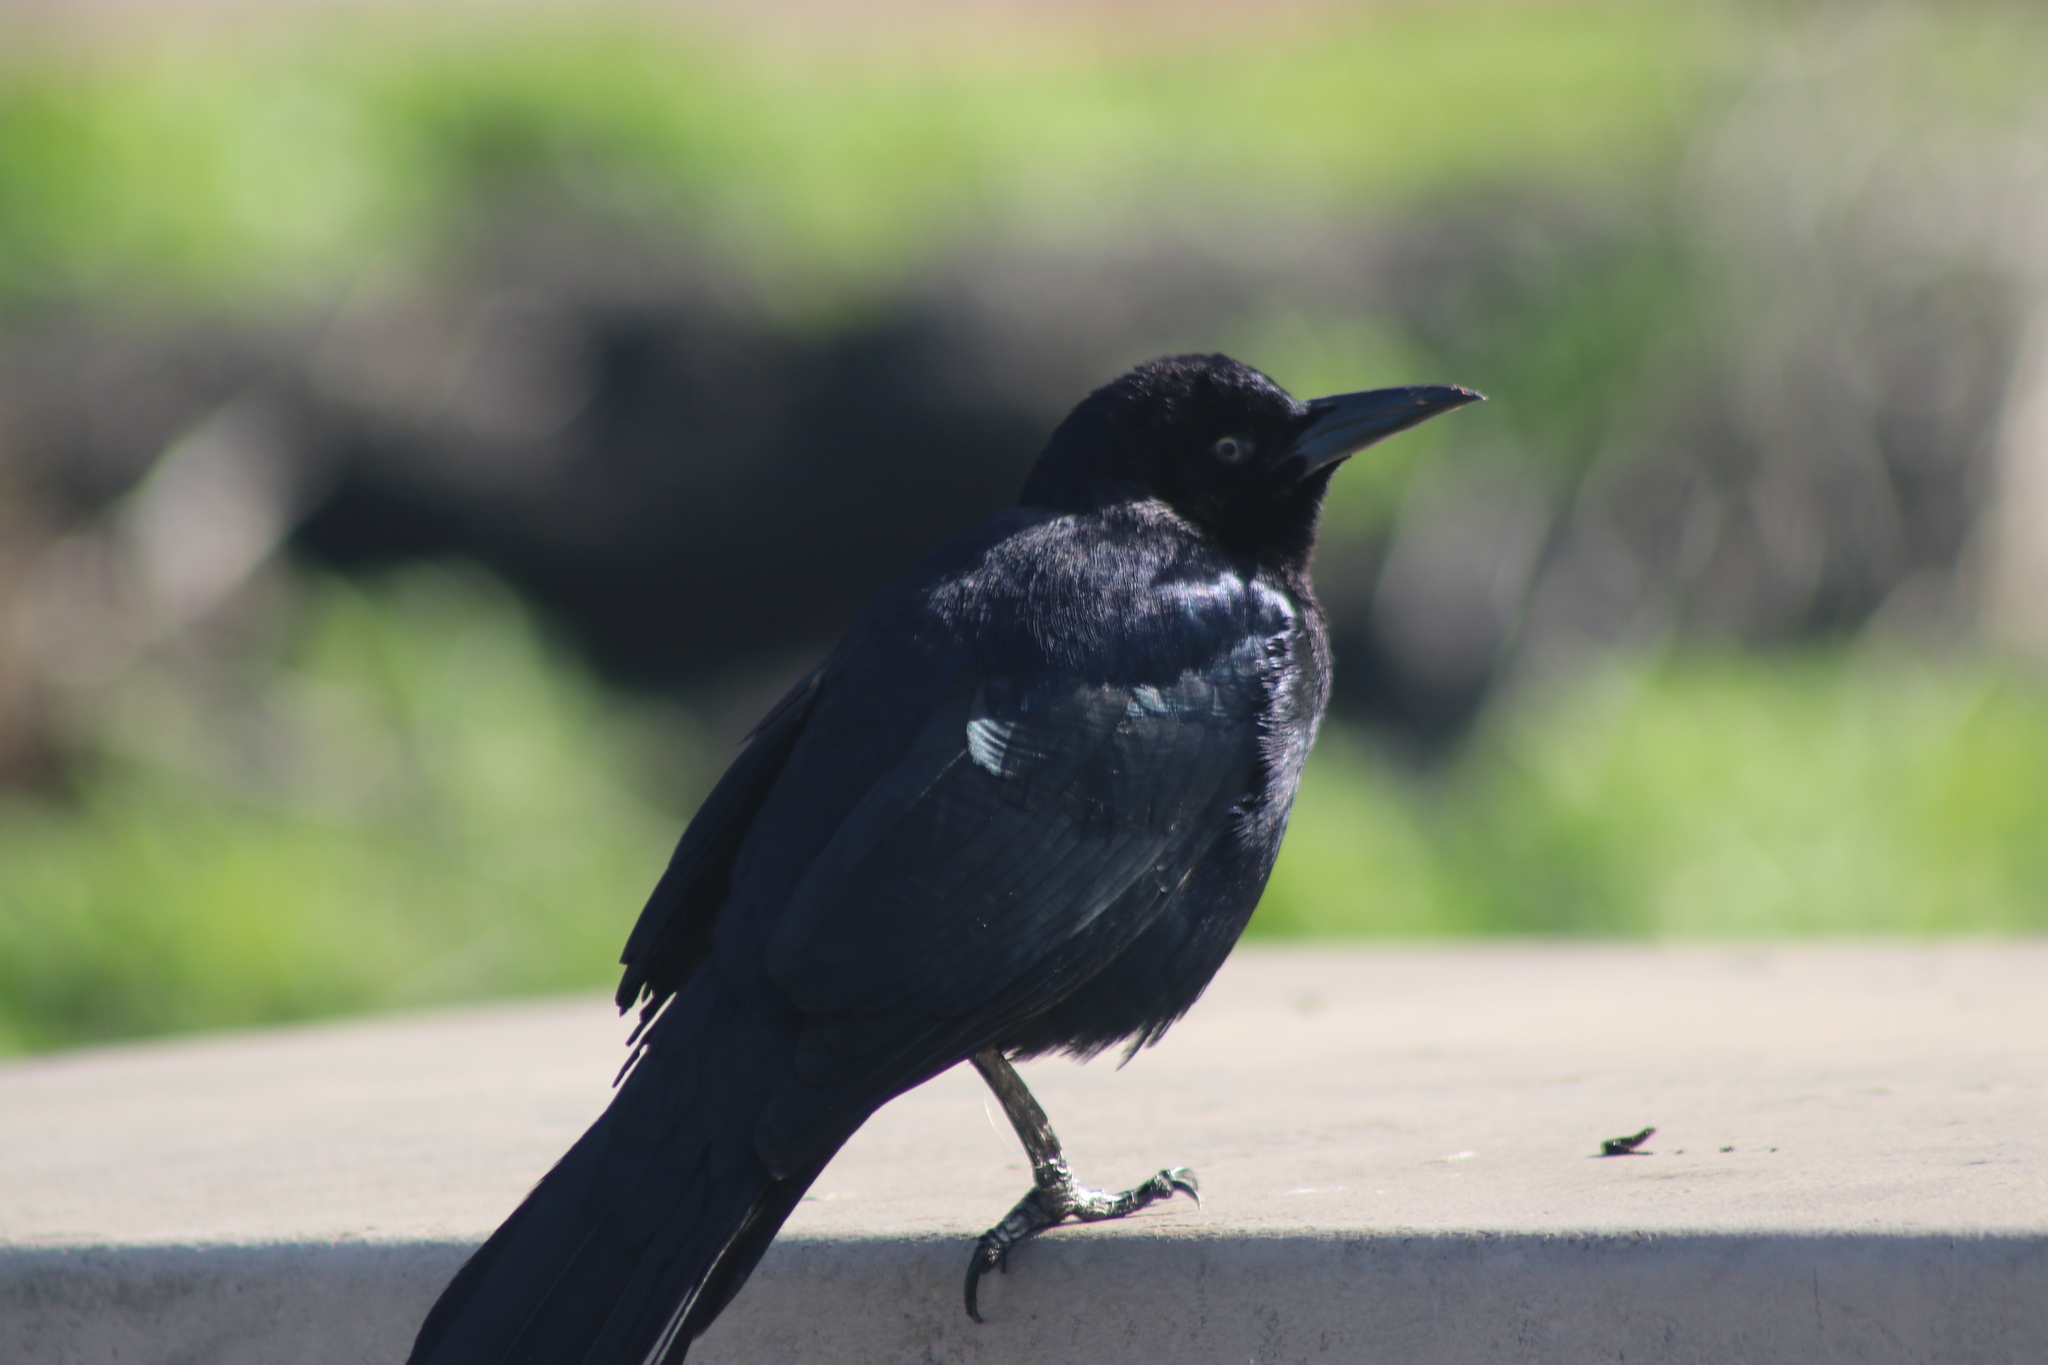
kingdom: Animalia
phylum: Chordata
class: Aves
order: Passeriformes
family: Icteridae
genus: Quiscalus
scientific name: Quiscalus mexicanus
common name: Great-tailed grackle
